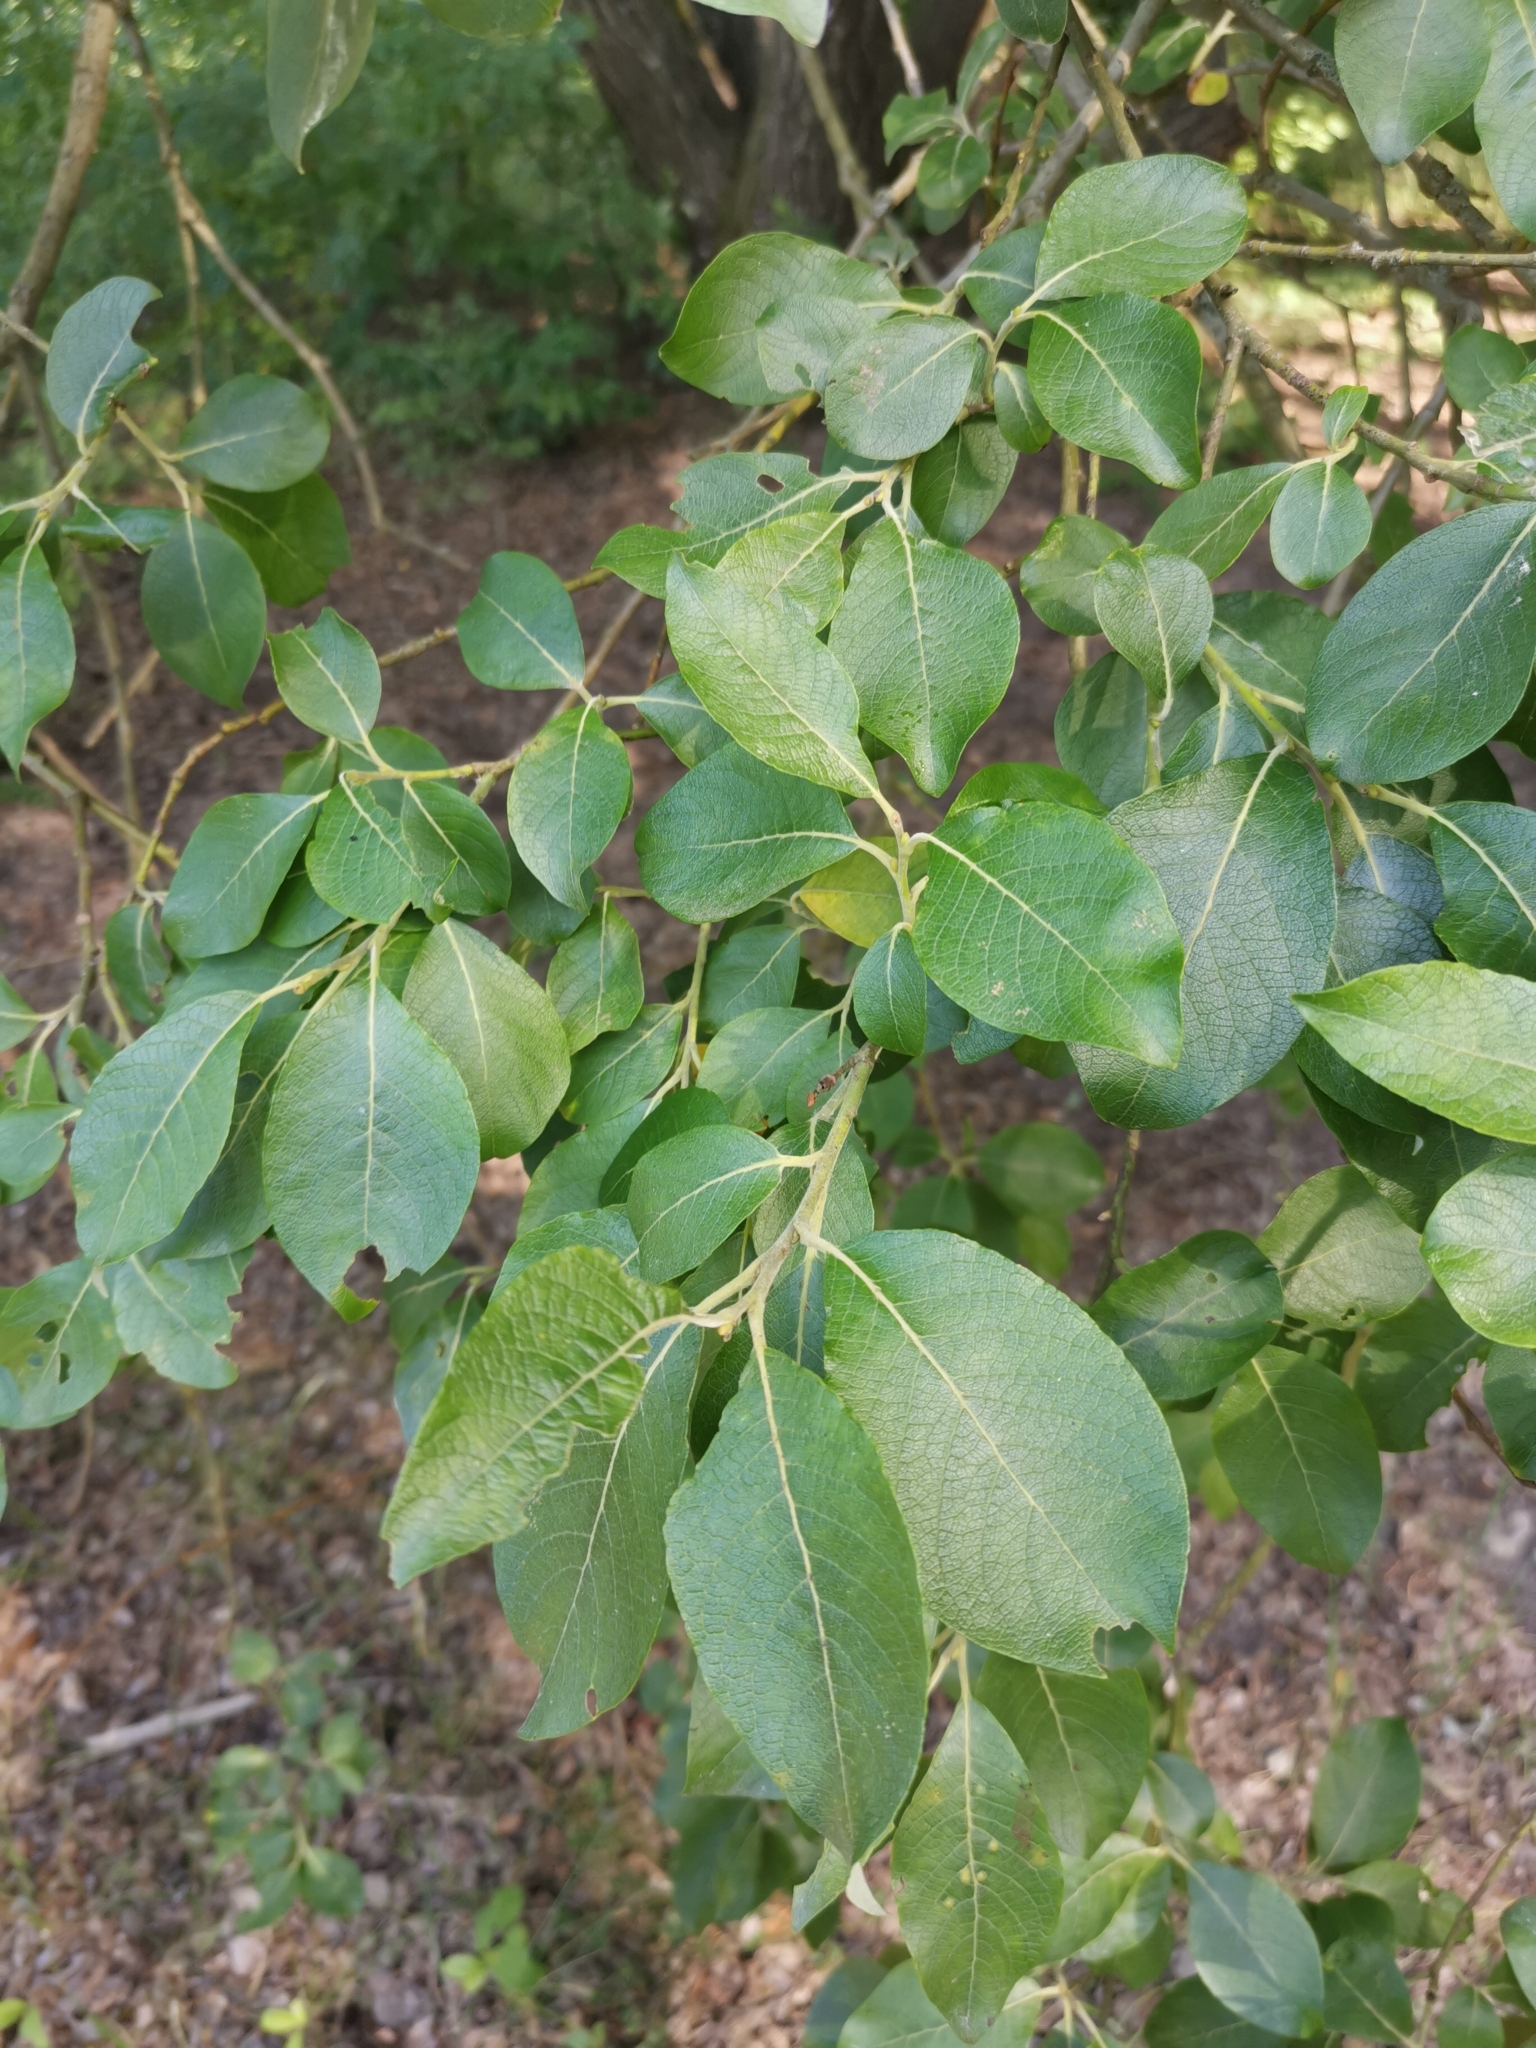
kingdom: Plantae
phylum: Tracheophyta
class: Magnoliopsida
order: Malpighiales
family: Salicaceae
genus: Salix
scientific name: Salix caprea
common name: Goat willow
